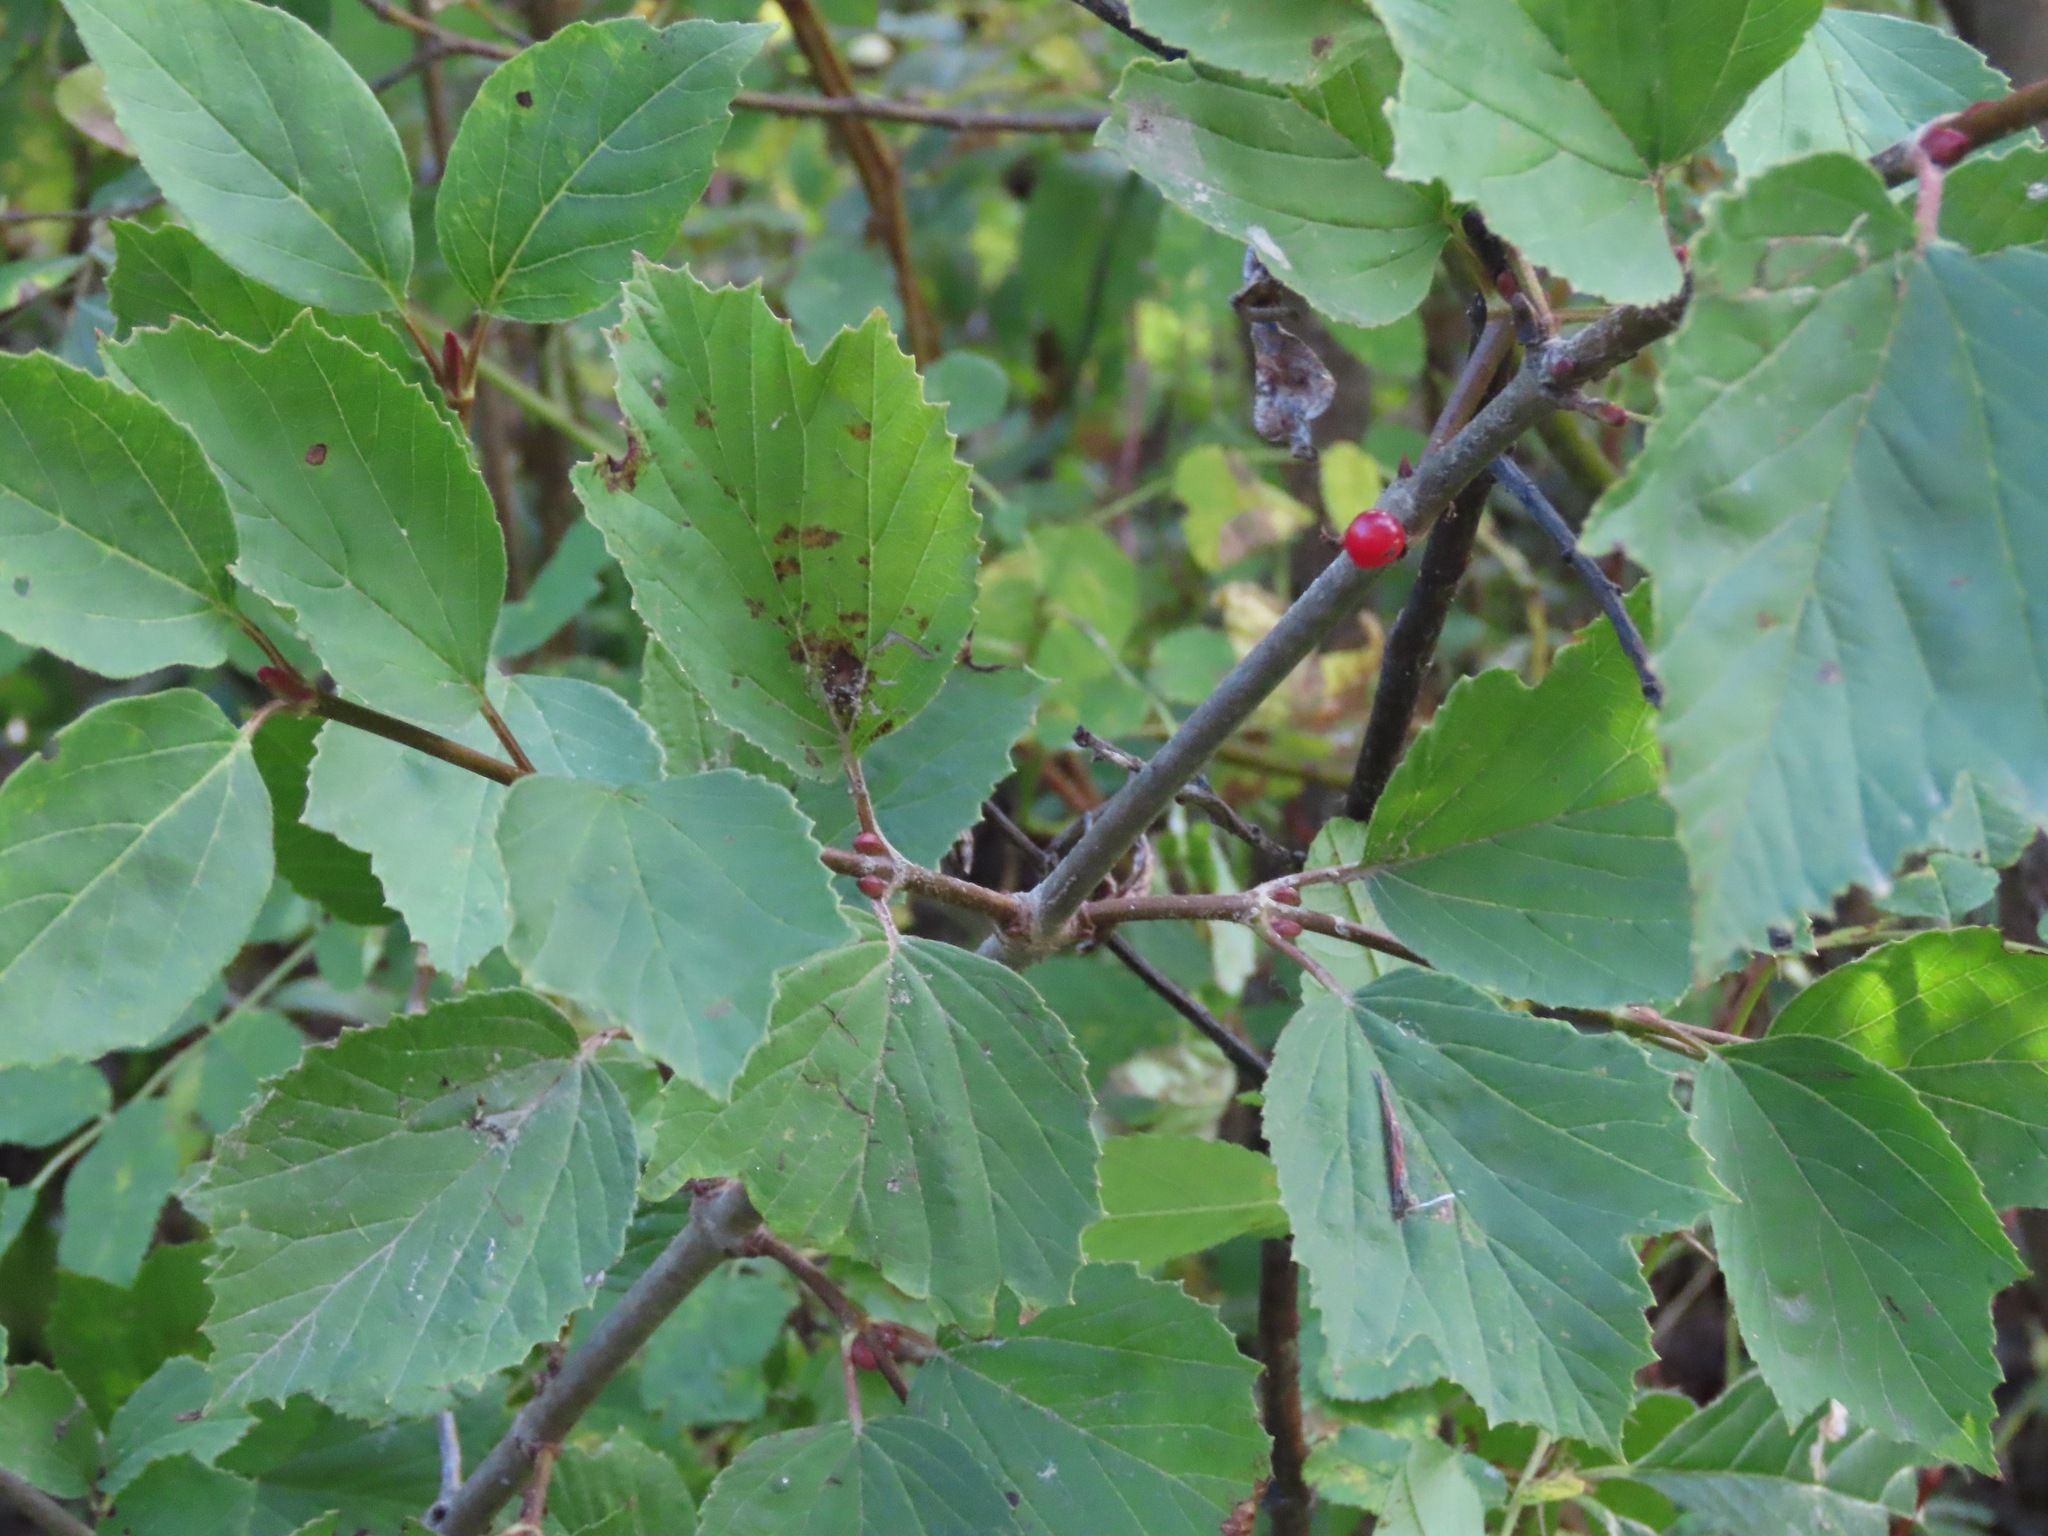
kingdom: Plantae
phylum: Tracheophyta
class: Magnoliopsida
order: Dipsacales
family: Viburnaceae
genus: Viburnum
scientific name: Viburnum edule
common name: Mooseberry
